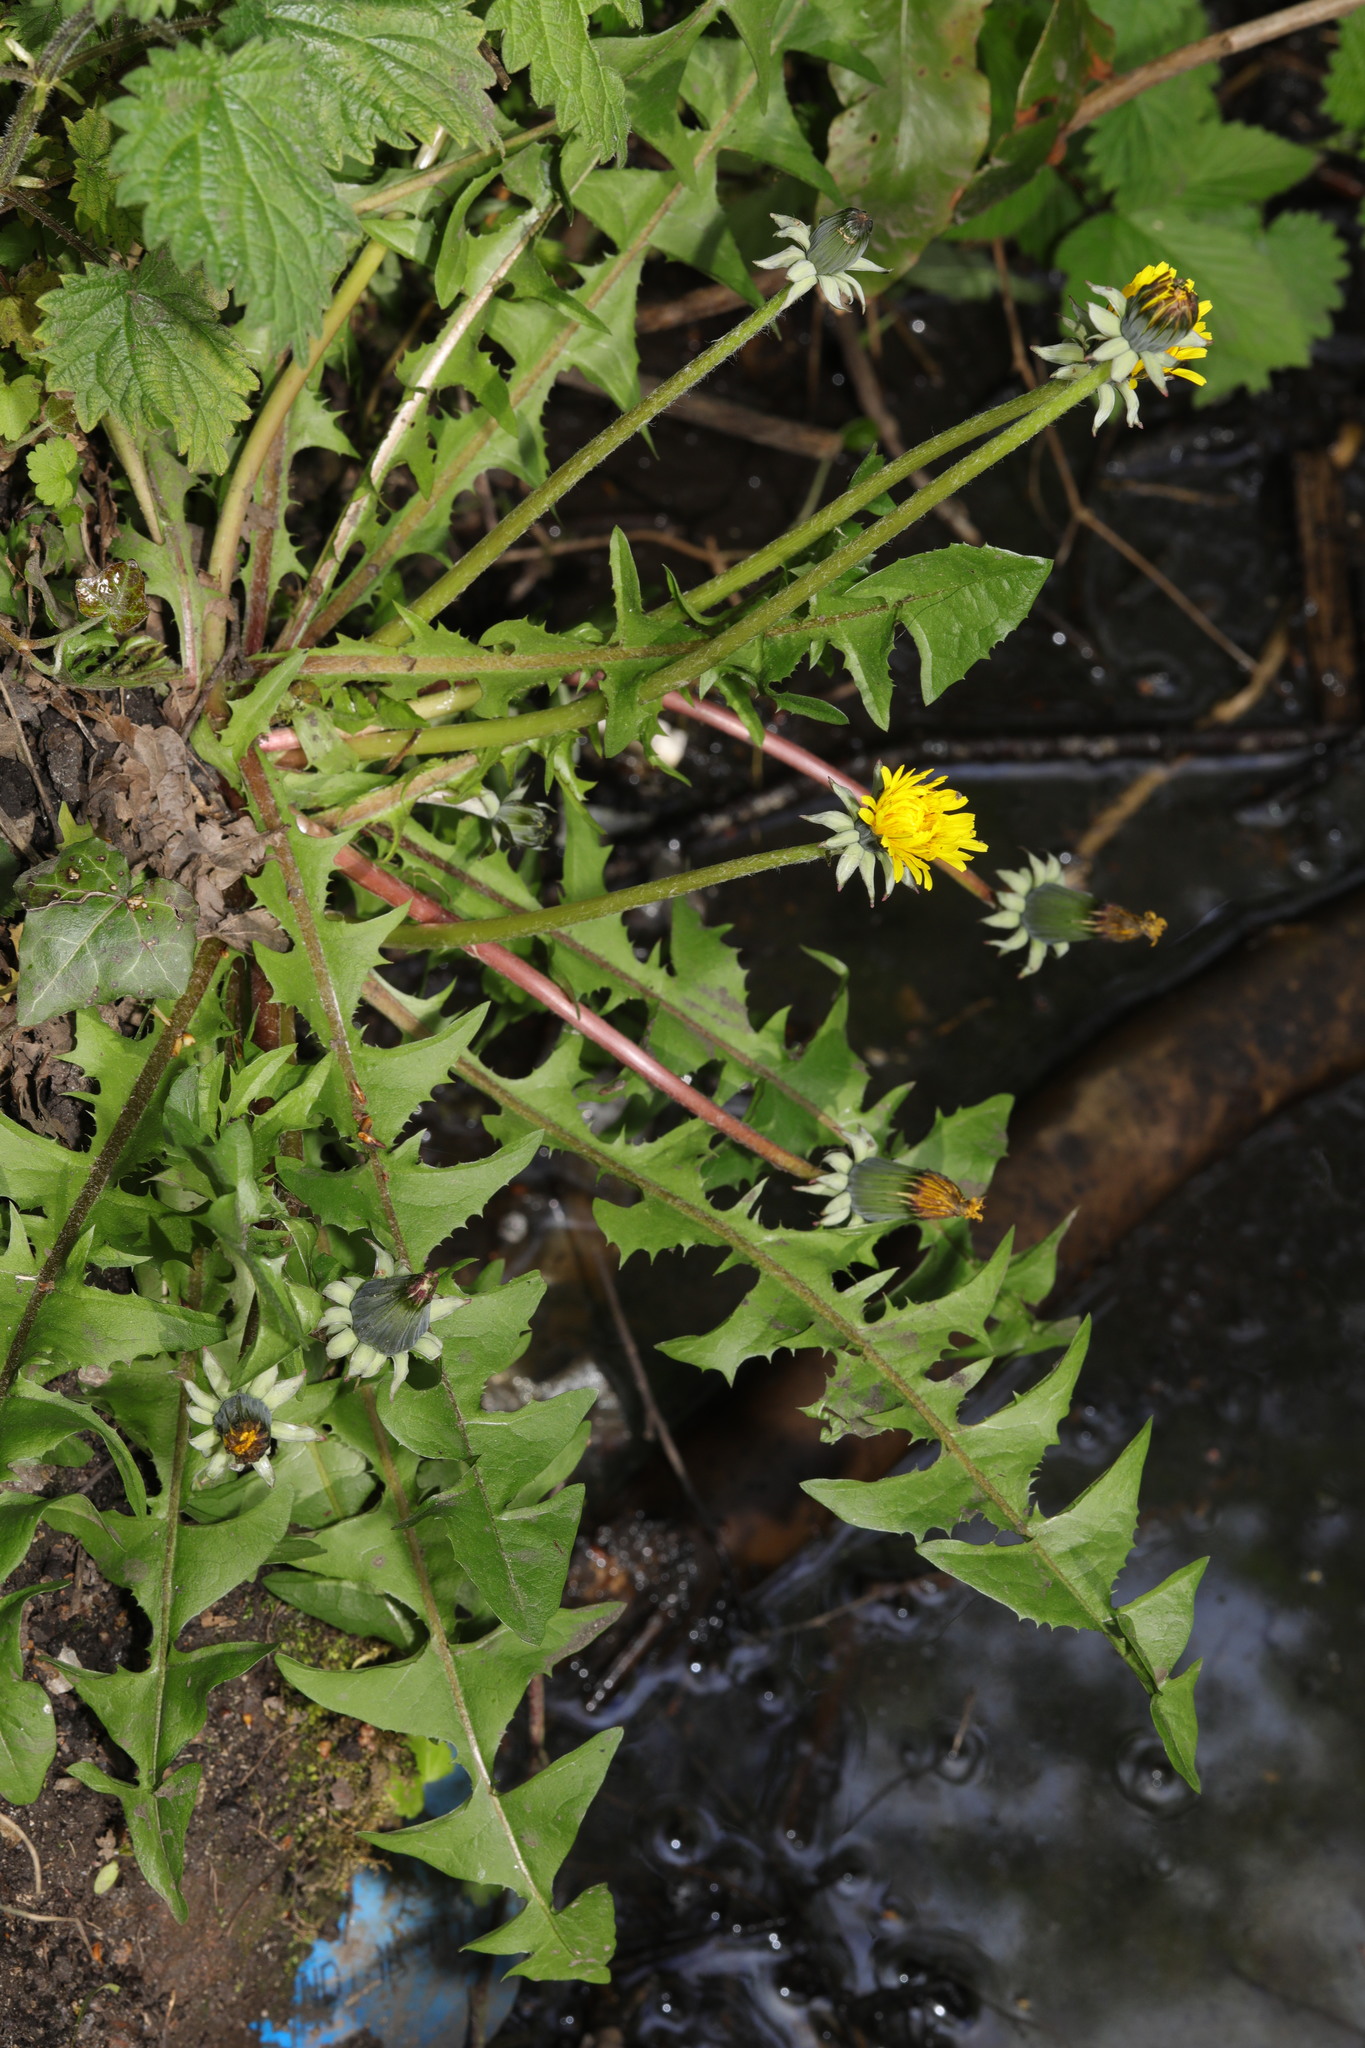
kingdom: Plantae
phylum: Tracheophyta
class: Magnoliopsida
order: Proteales
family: Platanaceae
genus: Hamatia
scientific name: Hamatia
